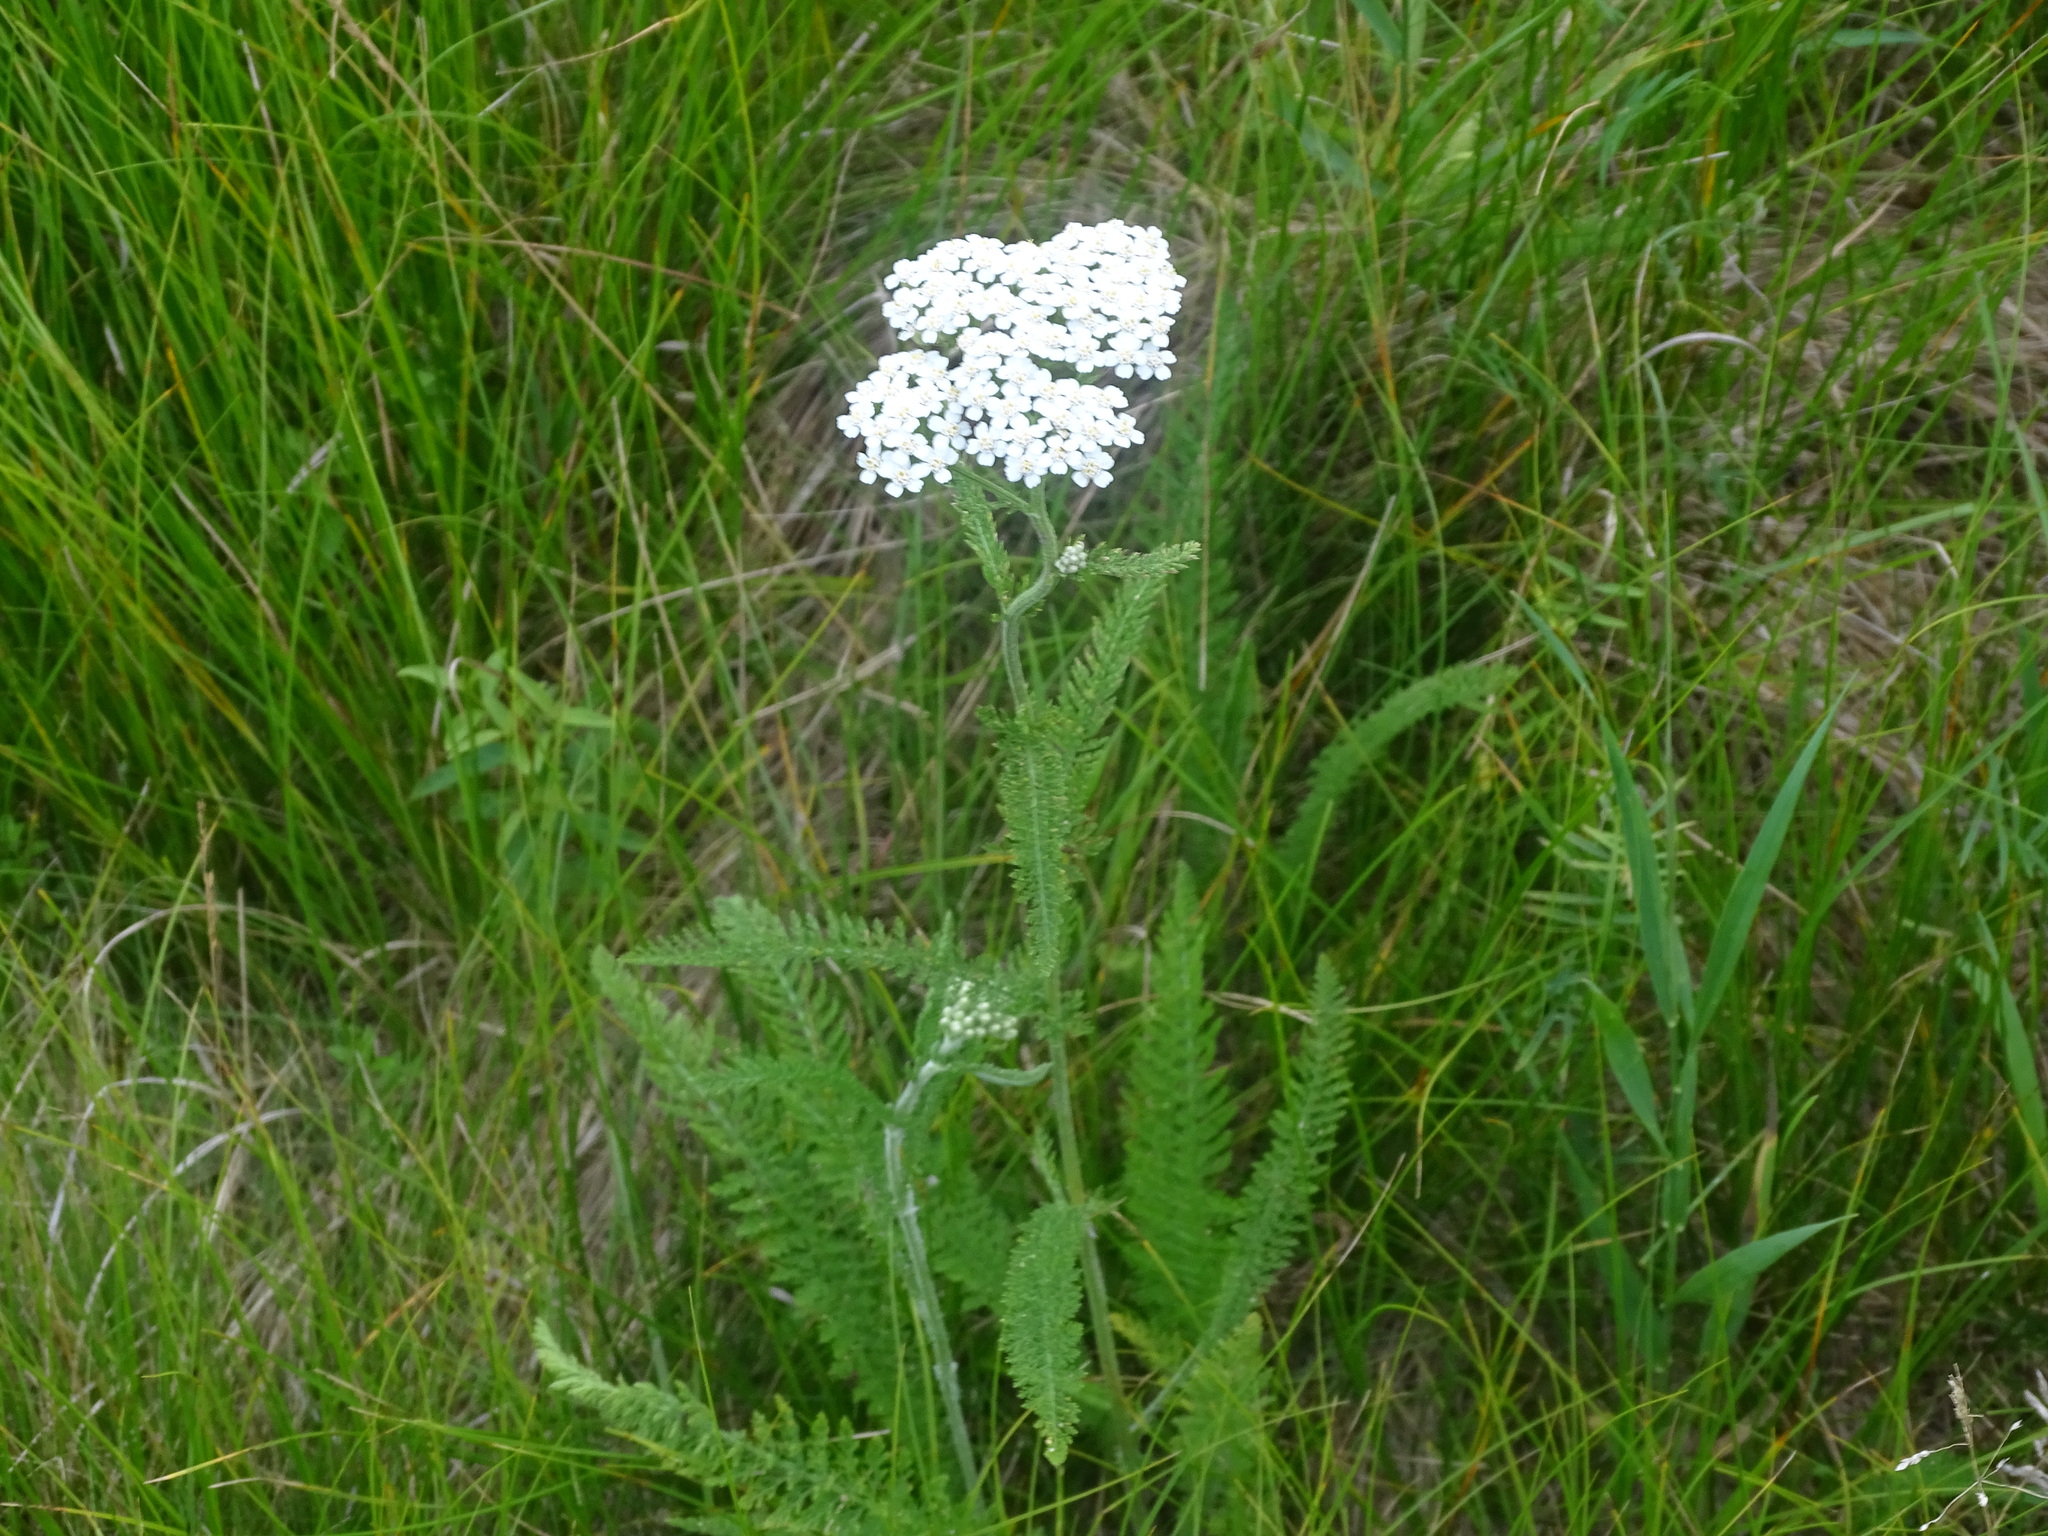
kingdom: Plantae
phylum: Tracheophyta
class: Magnoliopsida
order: Asterales
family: Asteraceae
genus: Achillea
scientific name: Achillea millefolium
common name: Yarrow
